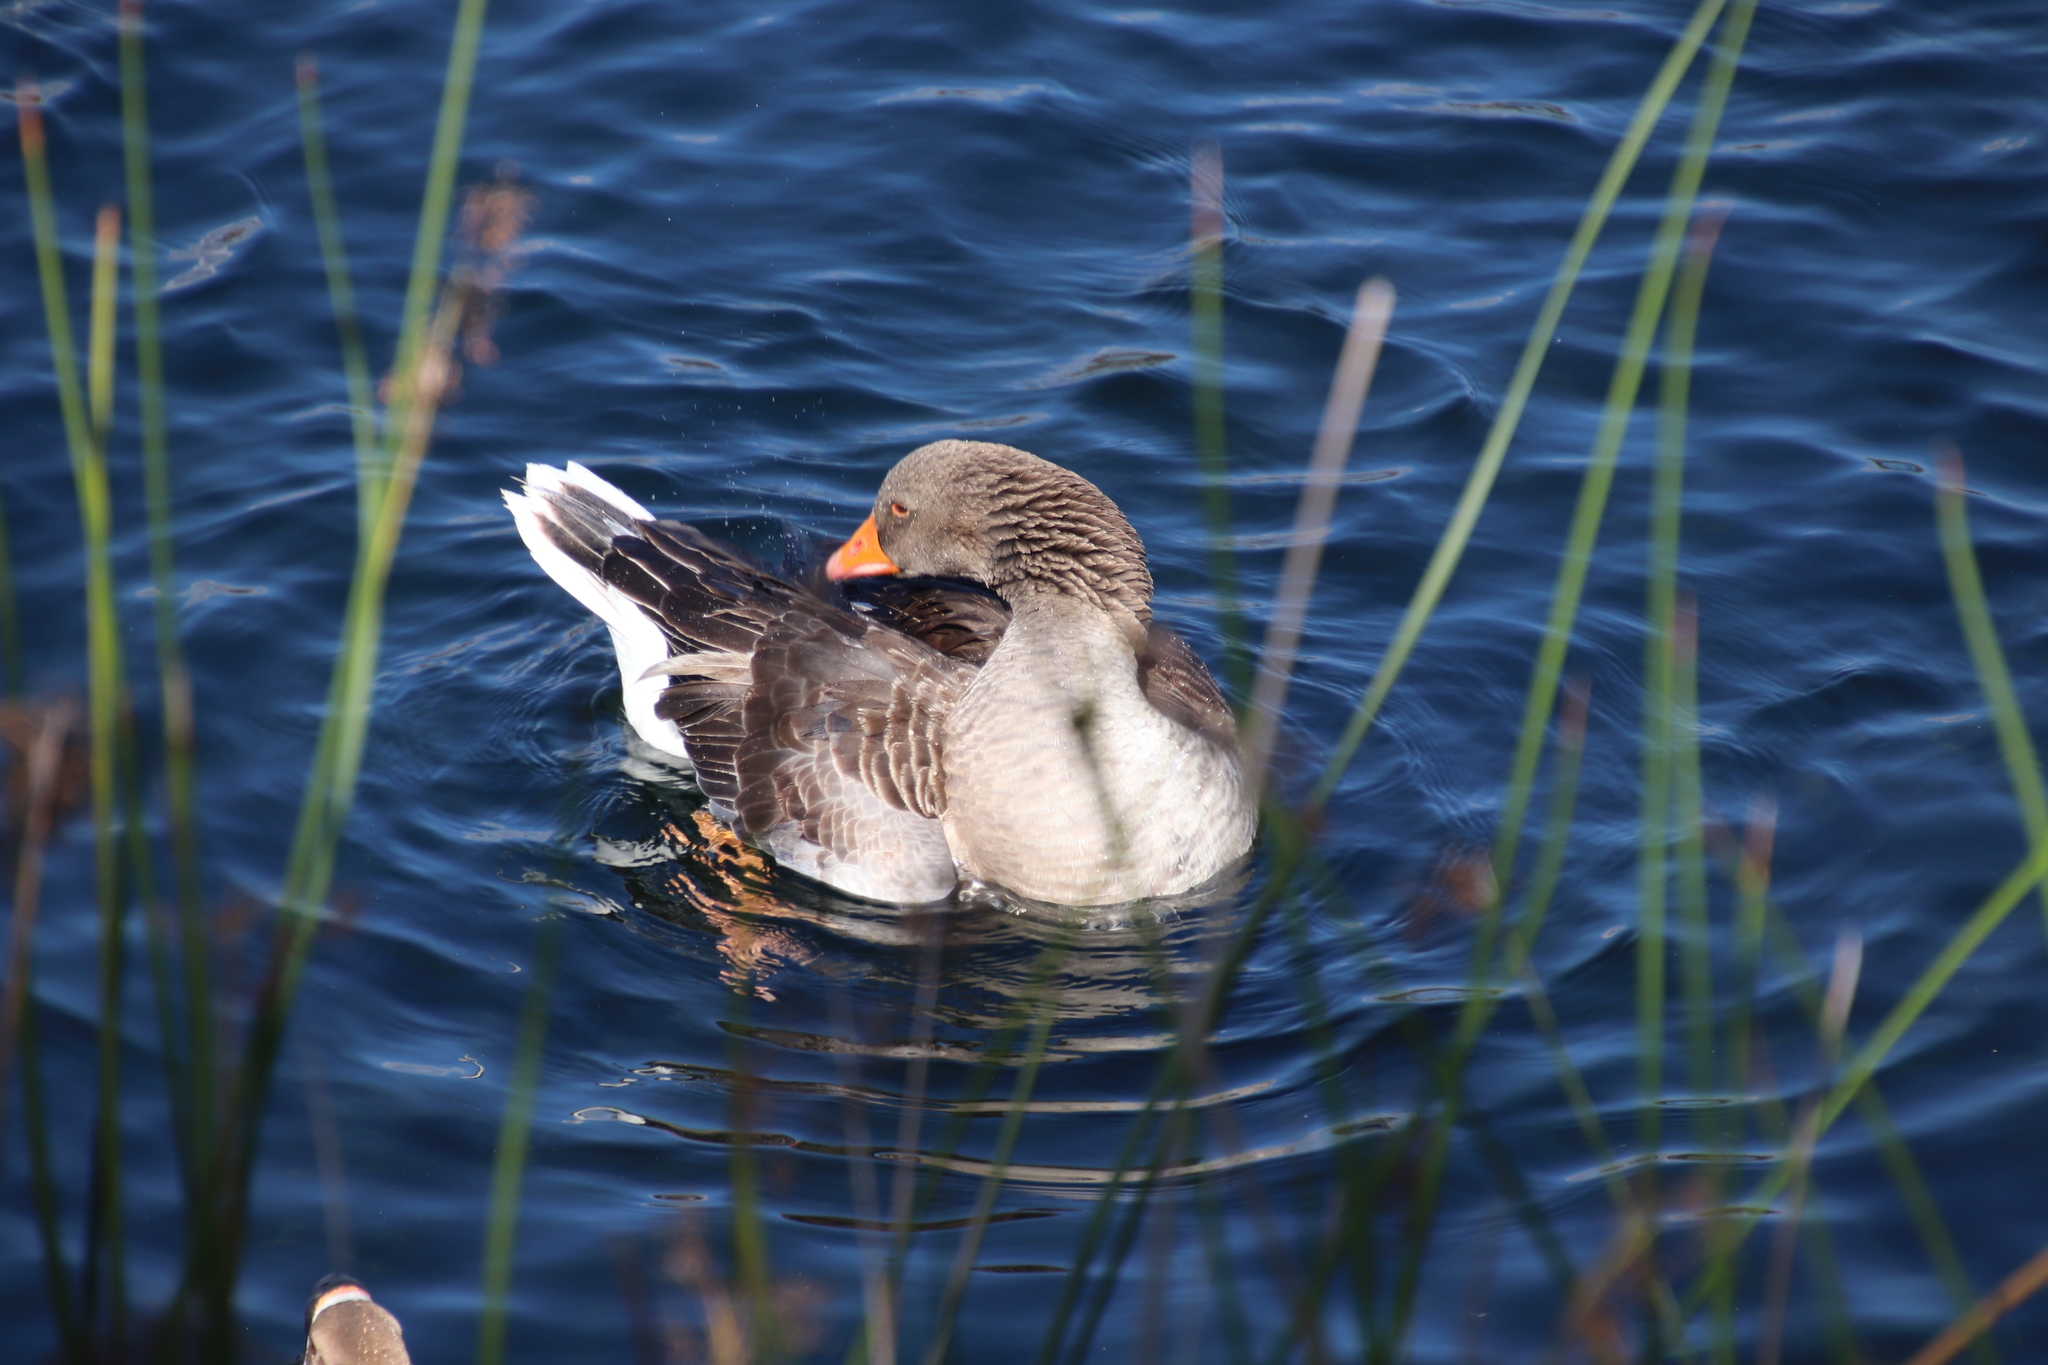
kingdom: Animalia
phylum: Chordata
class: Aves
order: Anseriformes
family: Anatidae
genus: Anser
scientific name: Anser anser
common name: Greylag goose
